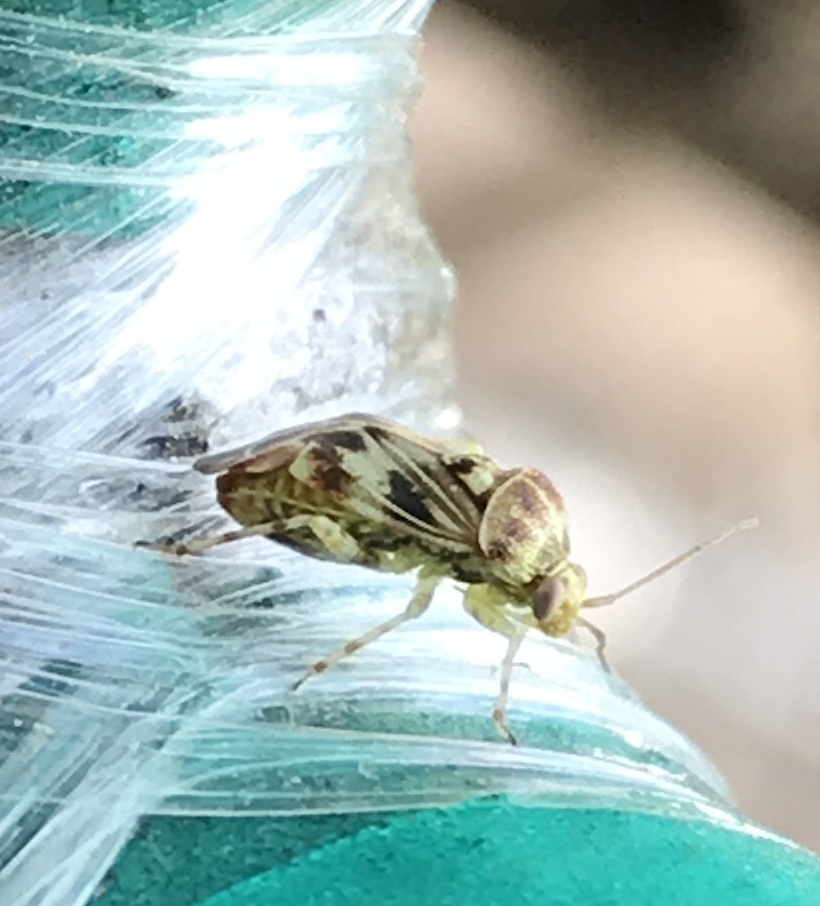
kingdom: Animalia
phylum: Arthropoda
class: Insecta
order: Hemiptera
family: Miridae
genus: Tropidosteptes
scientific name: Tropidosteptes quercicola
